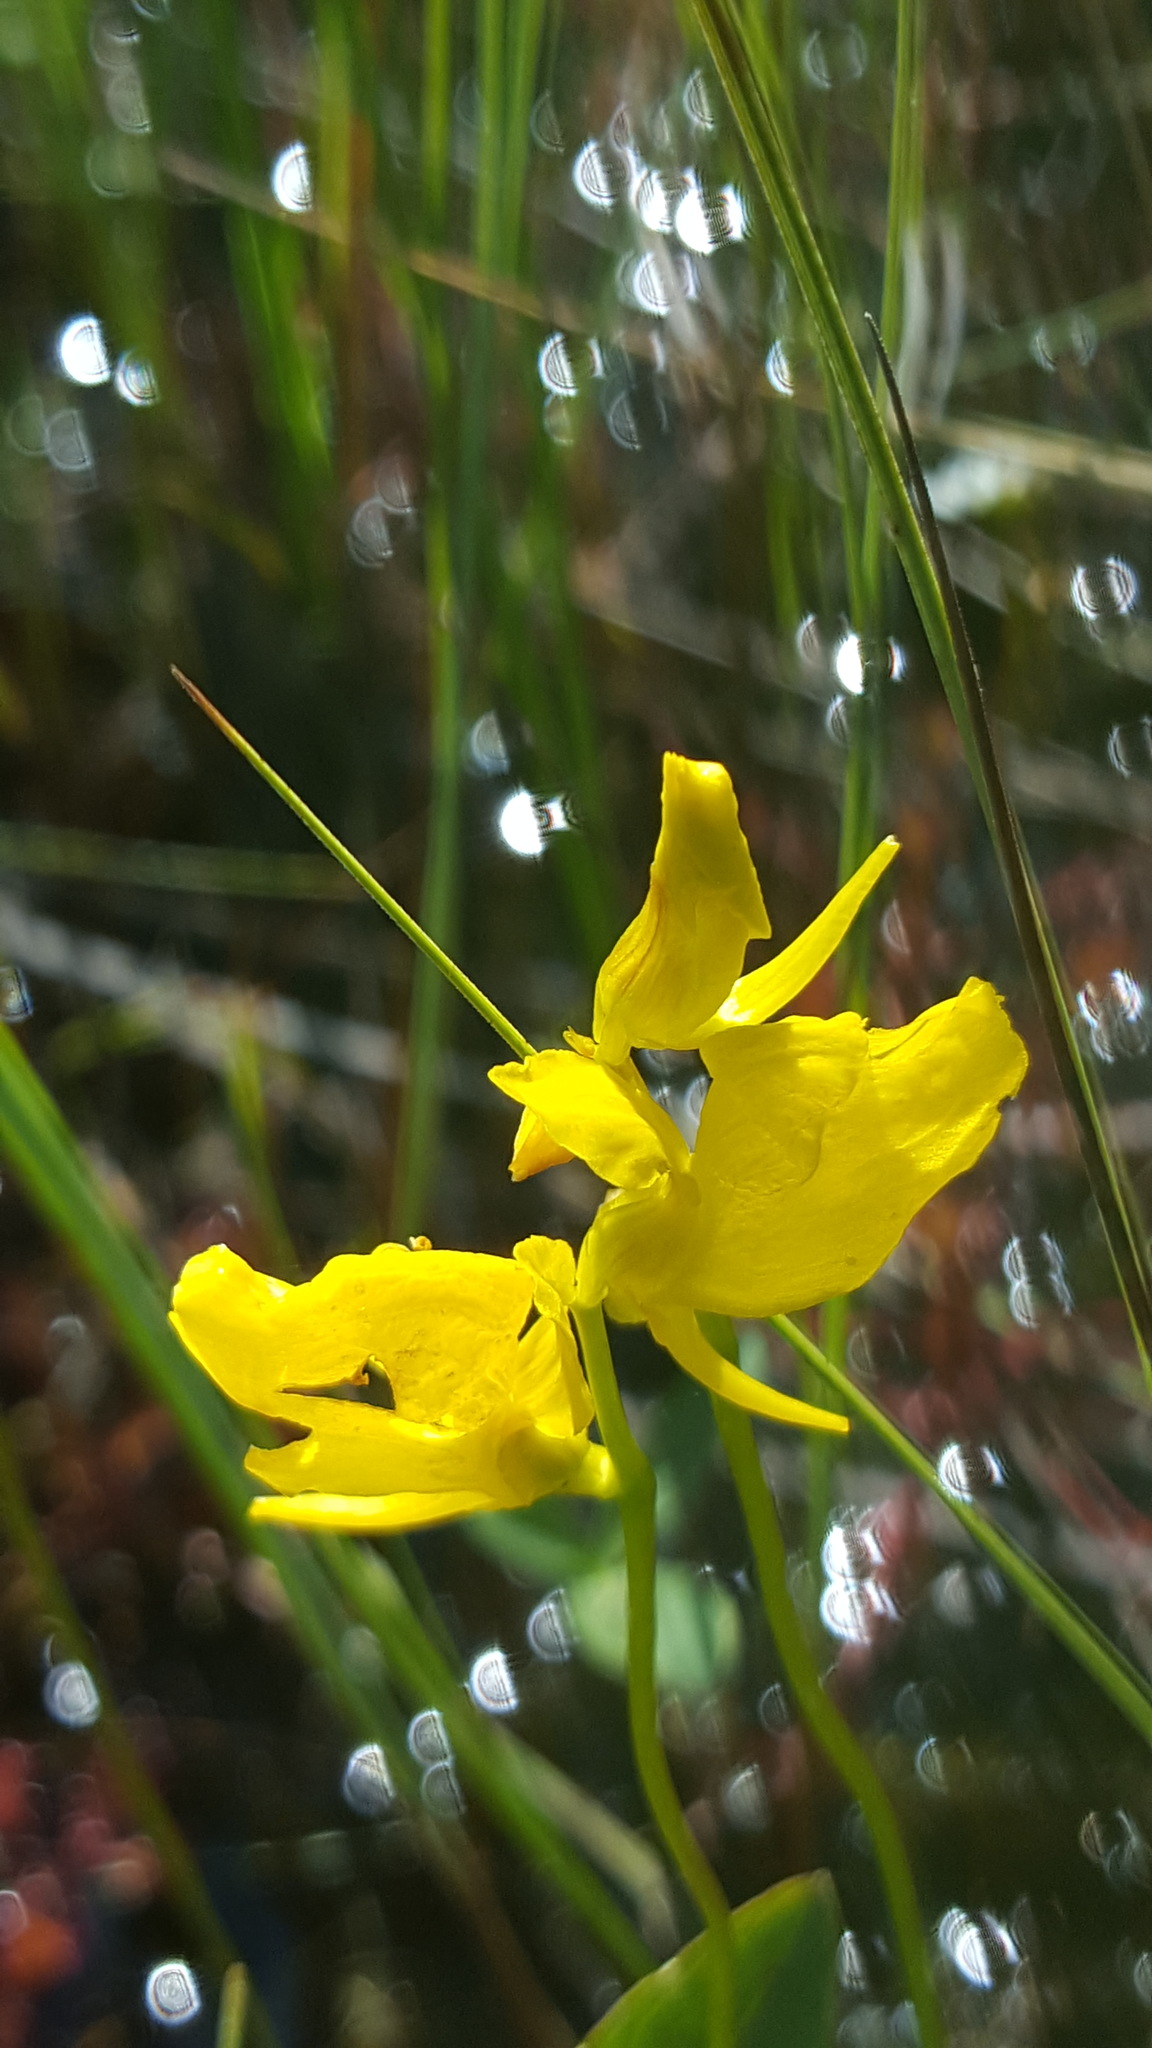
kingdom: Plantae
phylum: Tracheophyta
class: Magnoliopsida
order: Lamiales
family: Lentibulariaceae
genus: Utricularia
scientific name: Utricularia cornuta
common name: Horned bladderwort
